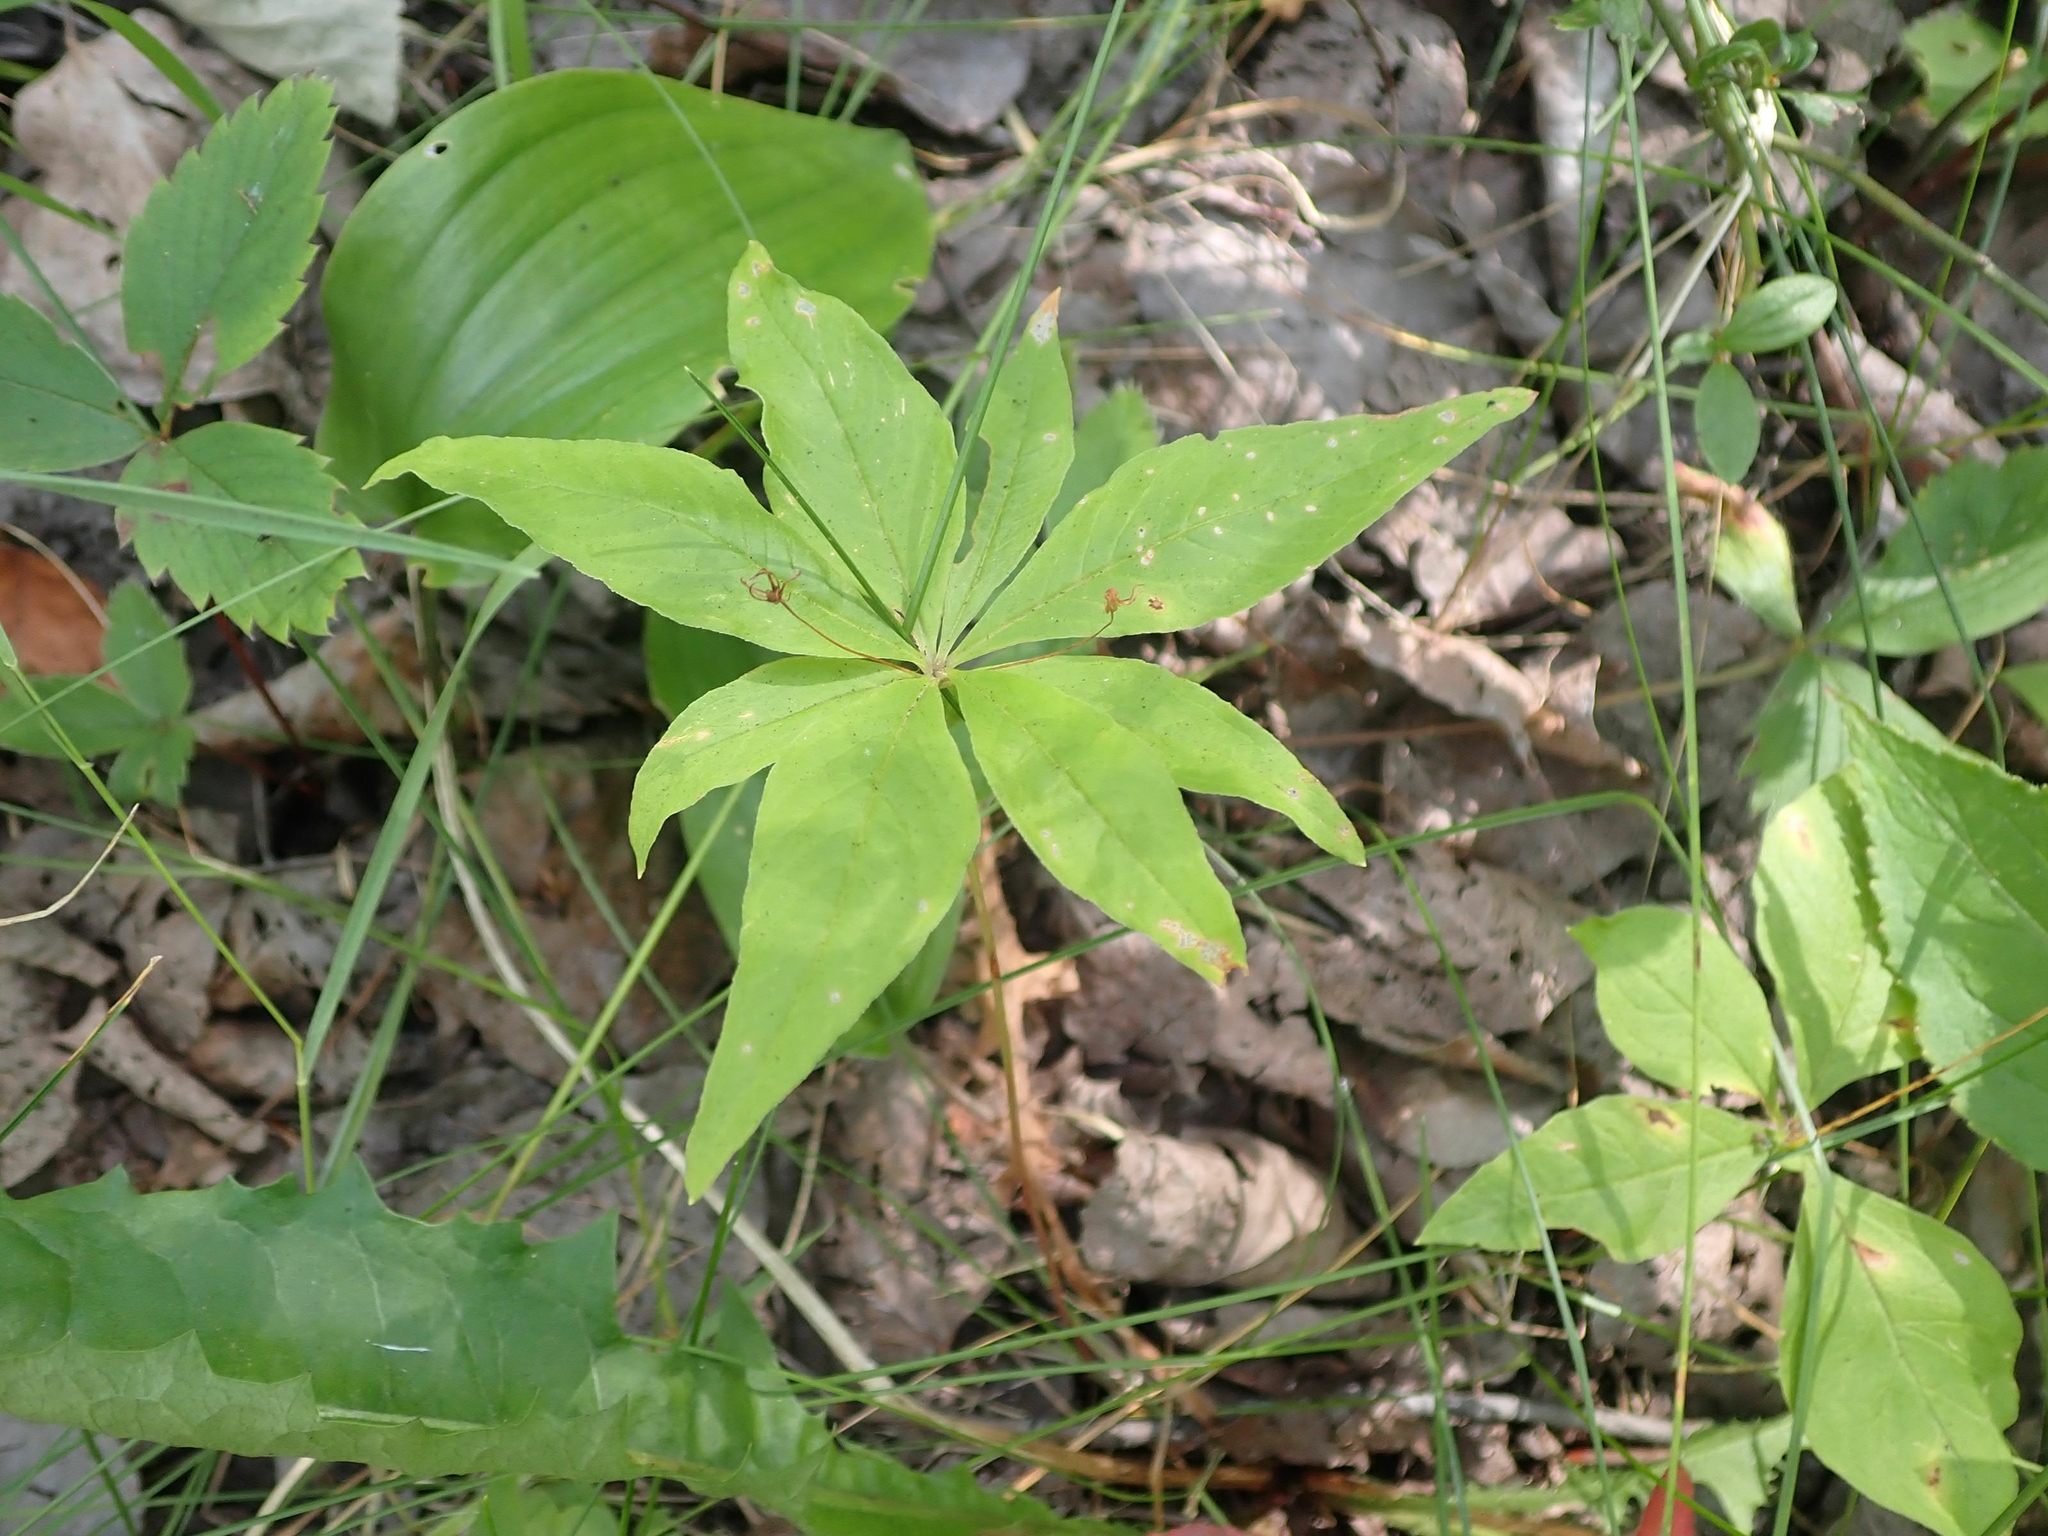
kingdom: Plantae
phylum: Tracheophyta
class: Magnoliopsida
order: Ericales
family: Primulaceae
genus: Lysimachia
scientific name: Lysimachia borealis
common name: American starflower
